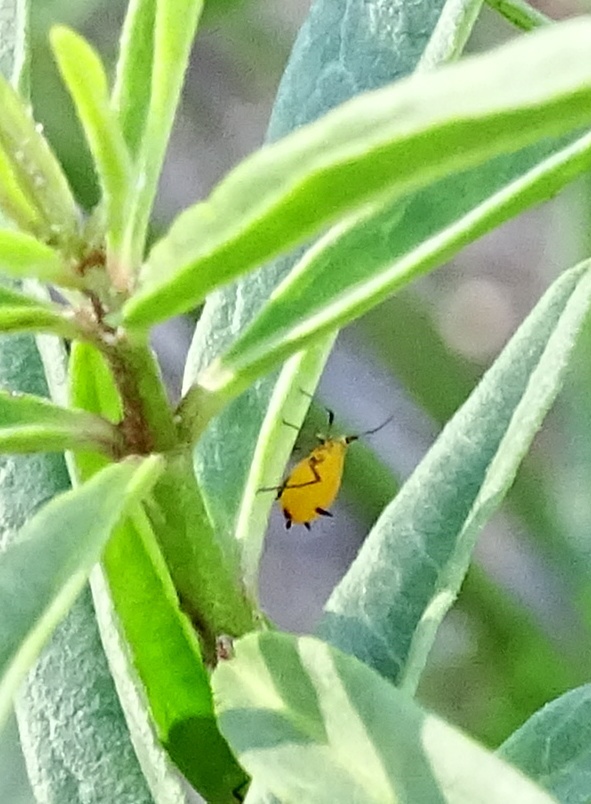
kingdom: Plantae
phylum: Tracheophyta
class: Magnoliopsida
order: Gentianales
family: Apocynaceae
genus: Asclepias
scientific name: Asclepias fascicularis
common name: Mexican milkweed
